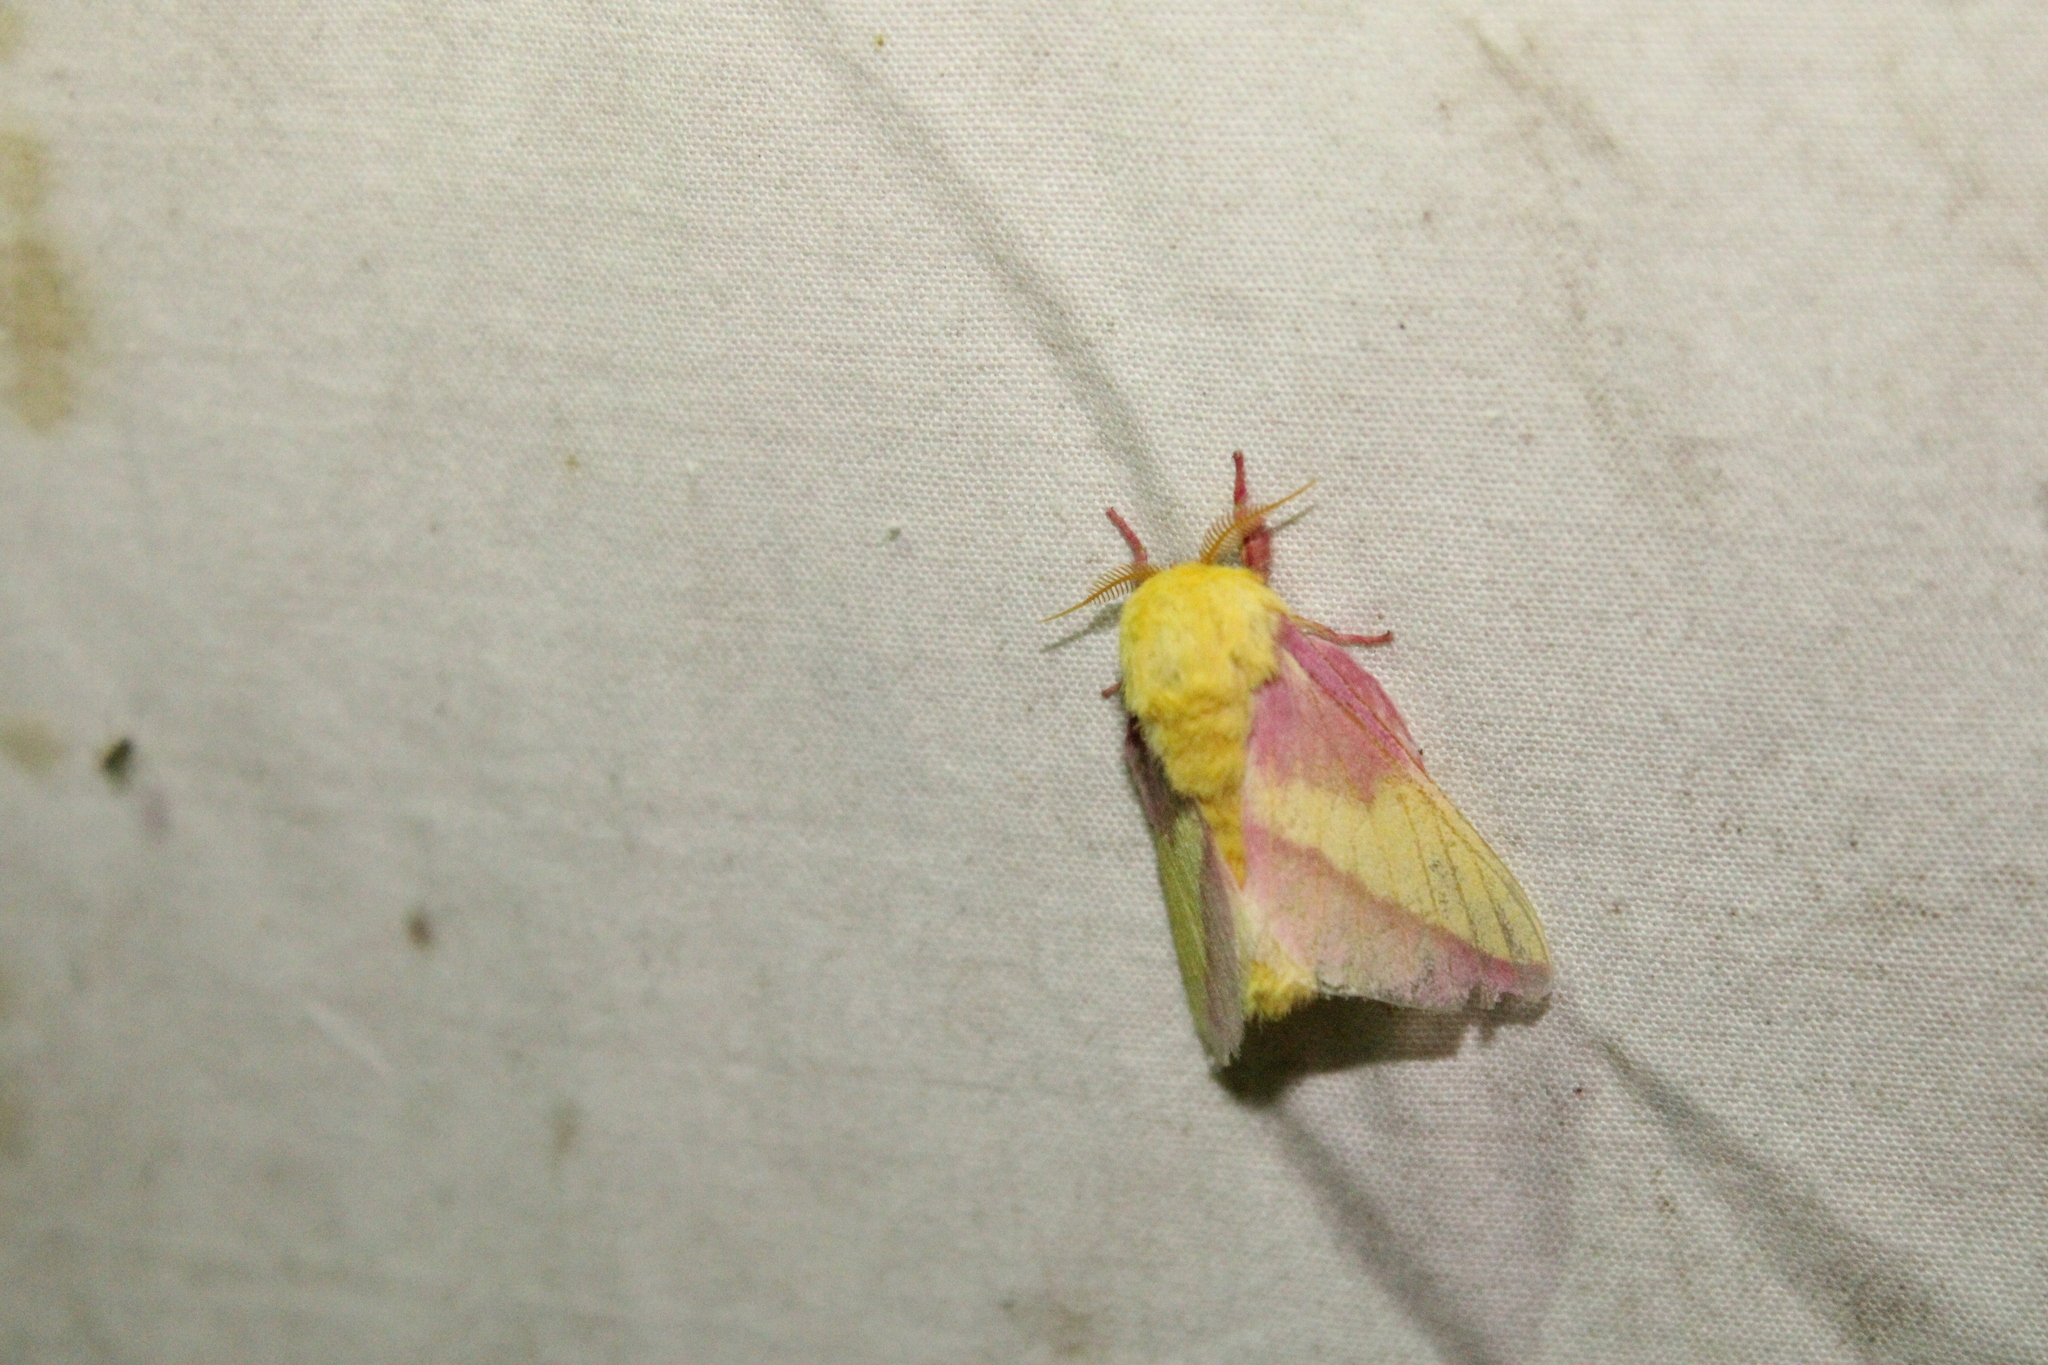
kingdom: Animalia
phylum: Arthropoda
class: Insecta
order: Lepidoptera
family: Saturniidae
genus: Dryocampa
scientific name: Dryocampa rubicunda
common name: Rosy maple moth
